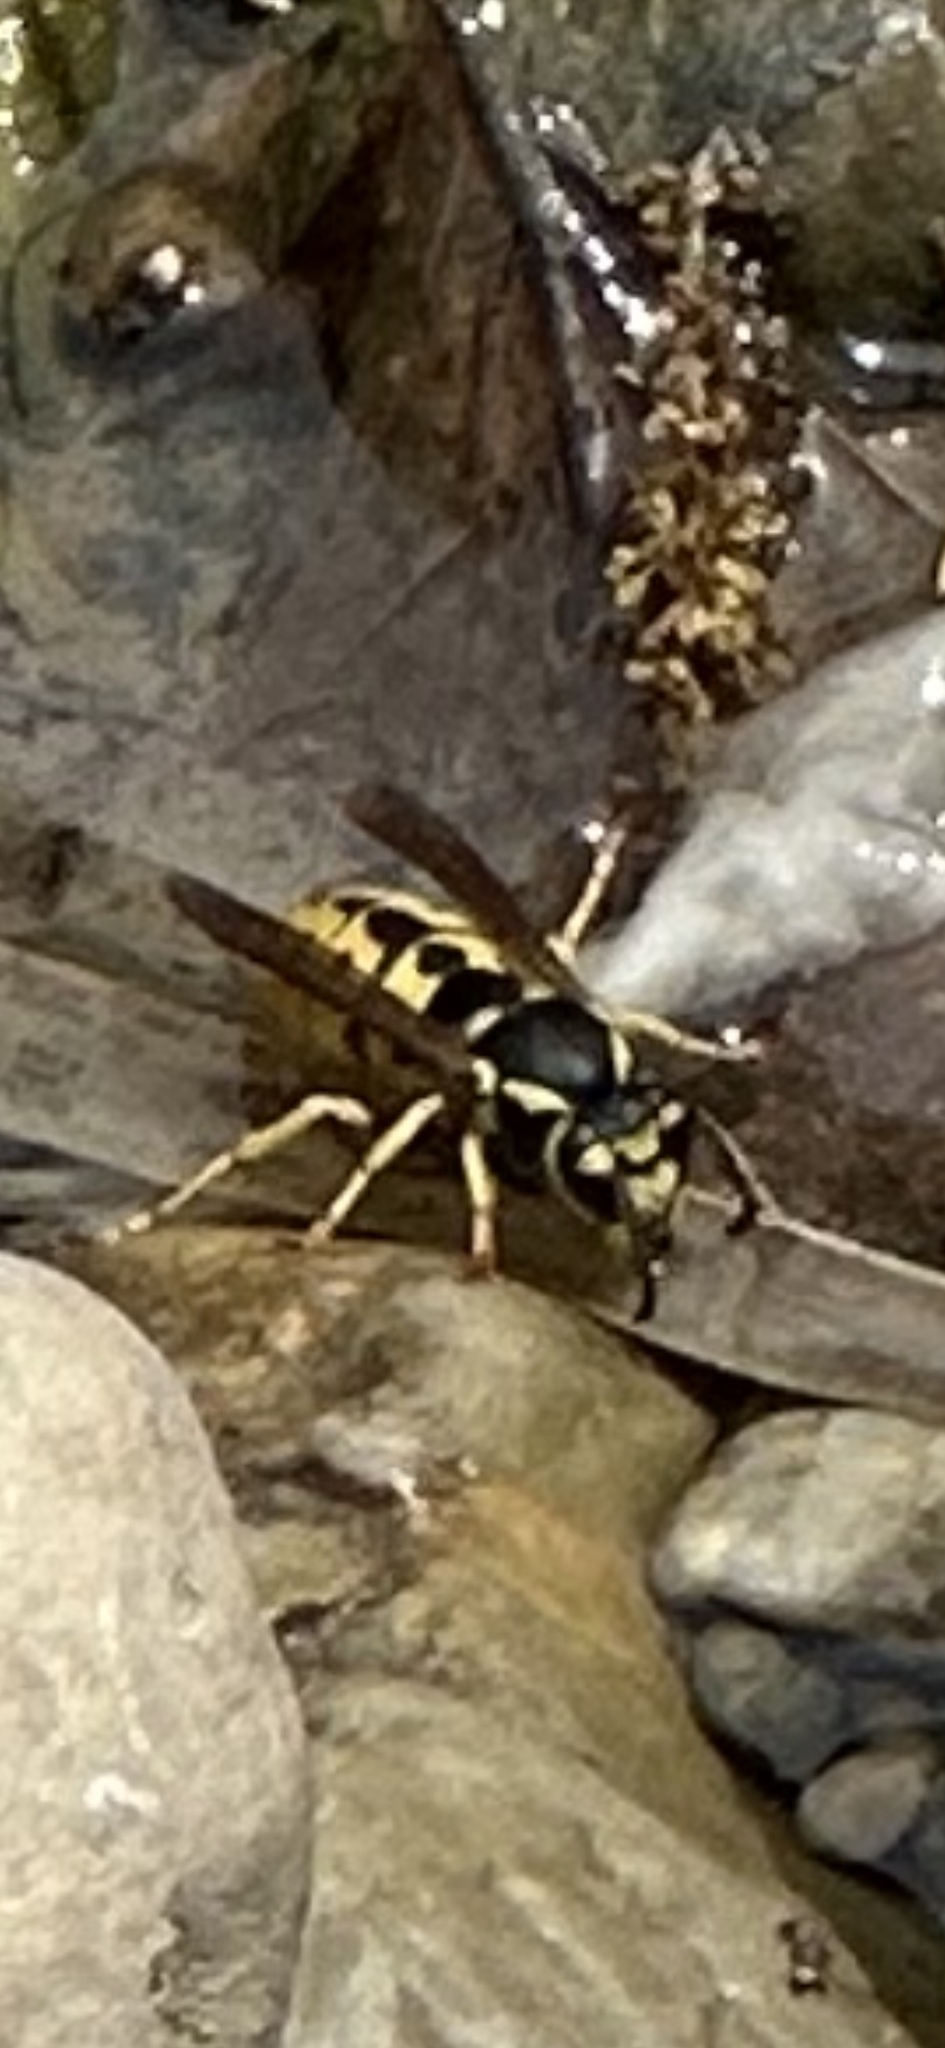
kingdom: Animalia
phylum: Arthropoda
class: Insecta
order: Hymenoptera
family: Vespidae
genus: Vespula
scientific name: Vespula germanica
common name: German wasp
